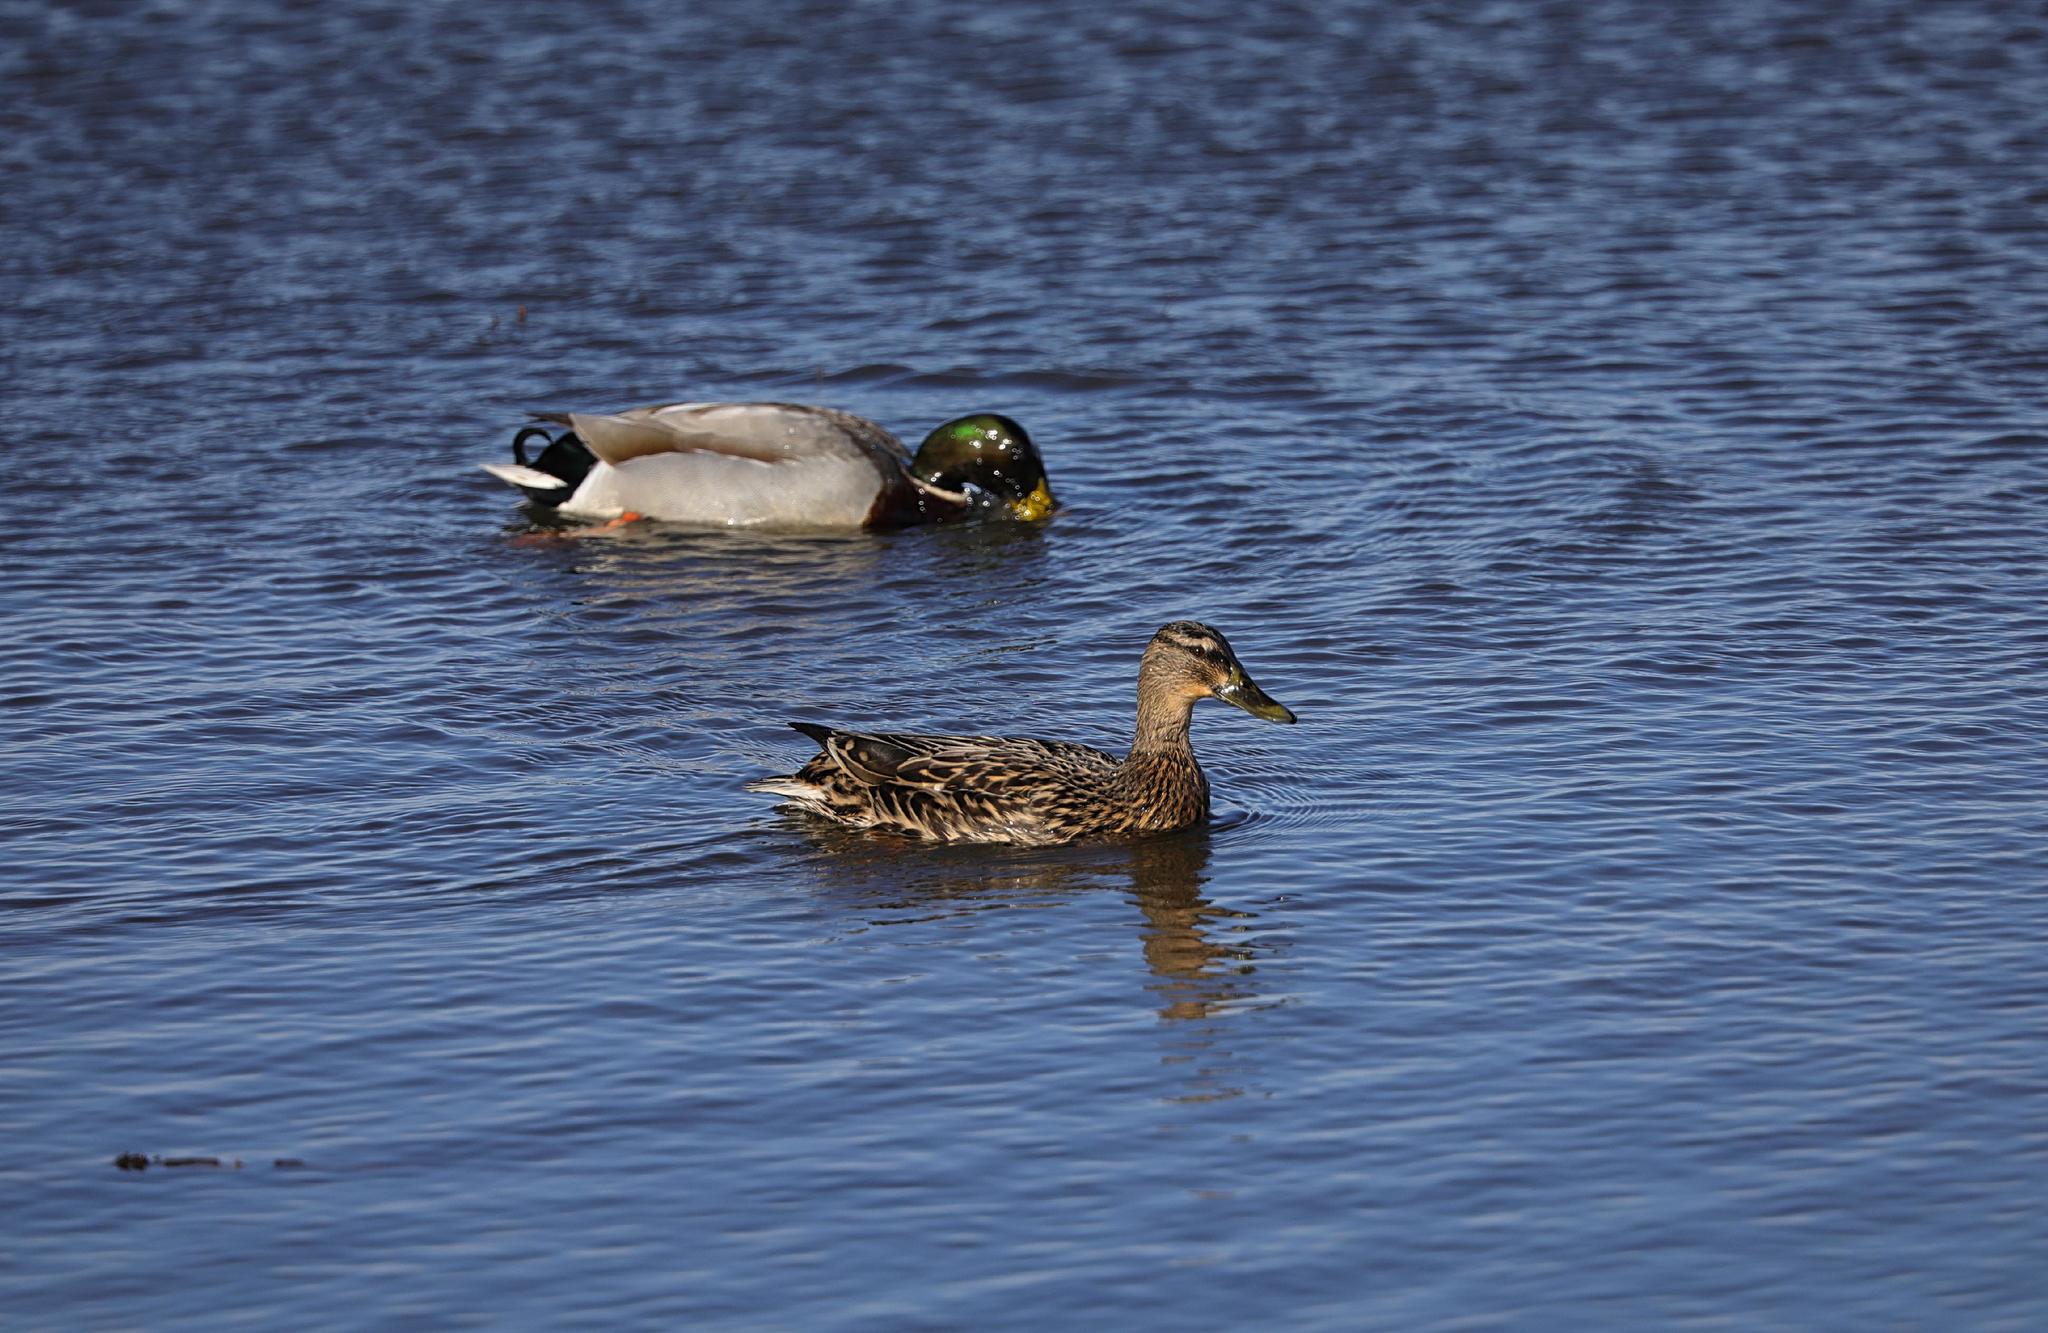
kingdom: Animalia
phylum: Chordata
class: Aves
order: Anseriformes
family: Anatidae
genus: Anas
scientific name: Anas platyrhynchos
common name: Mallard
